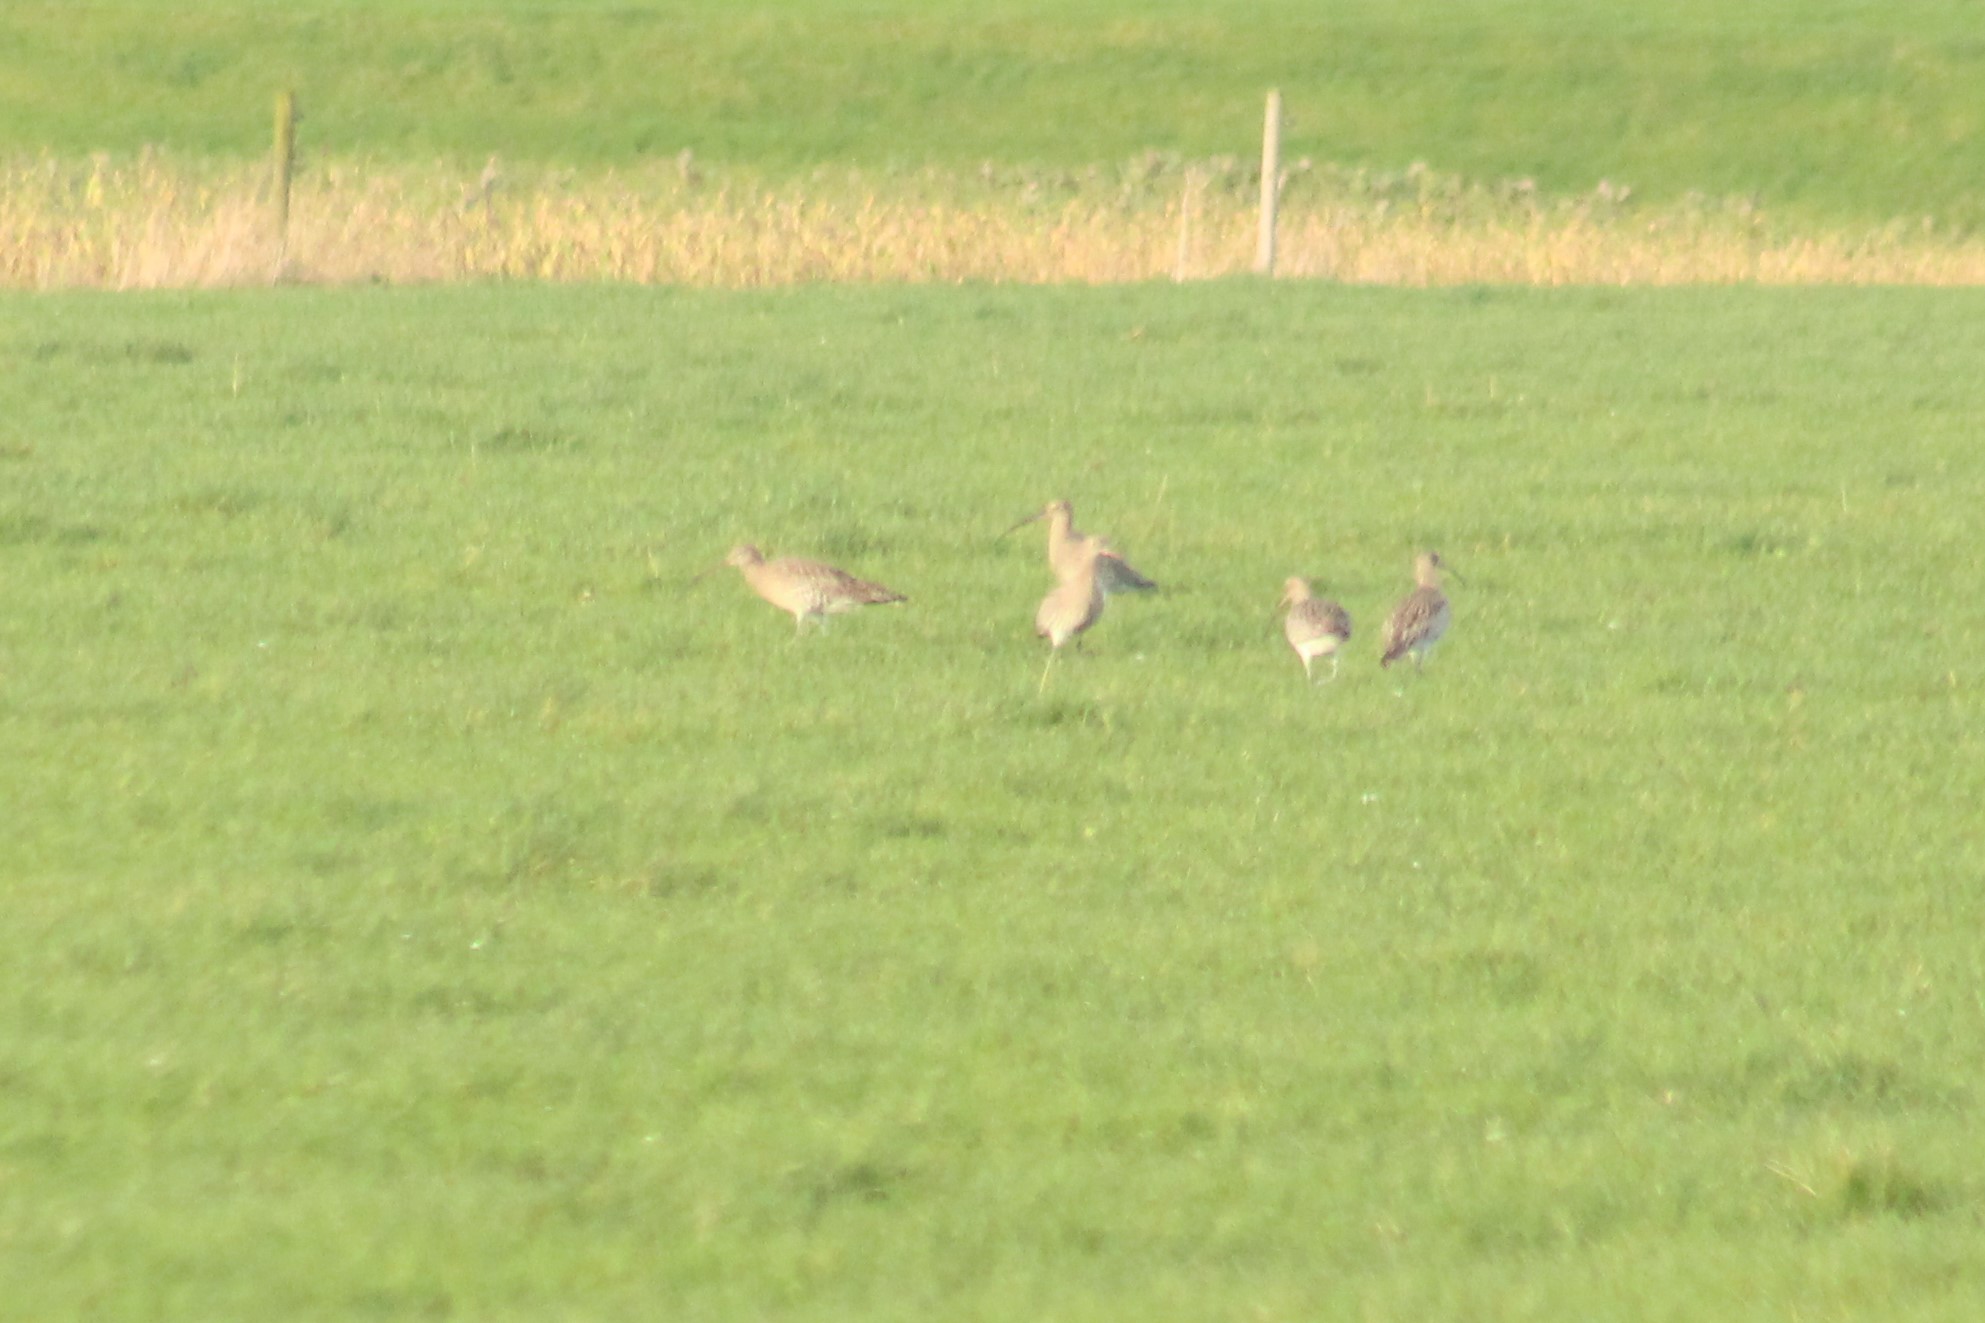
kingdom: Animalia
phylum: Chordata
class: Aves
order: Charadriiformes
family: Scolopacidae
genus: Numenius
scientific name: Numenius arquata
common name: Eurasian curlew
